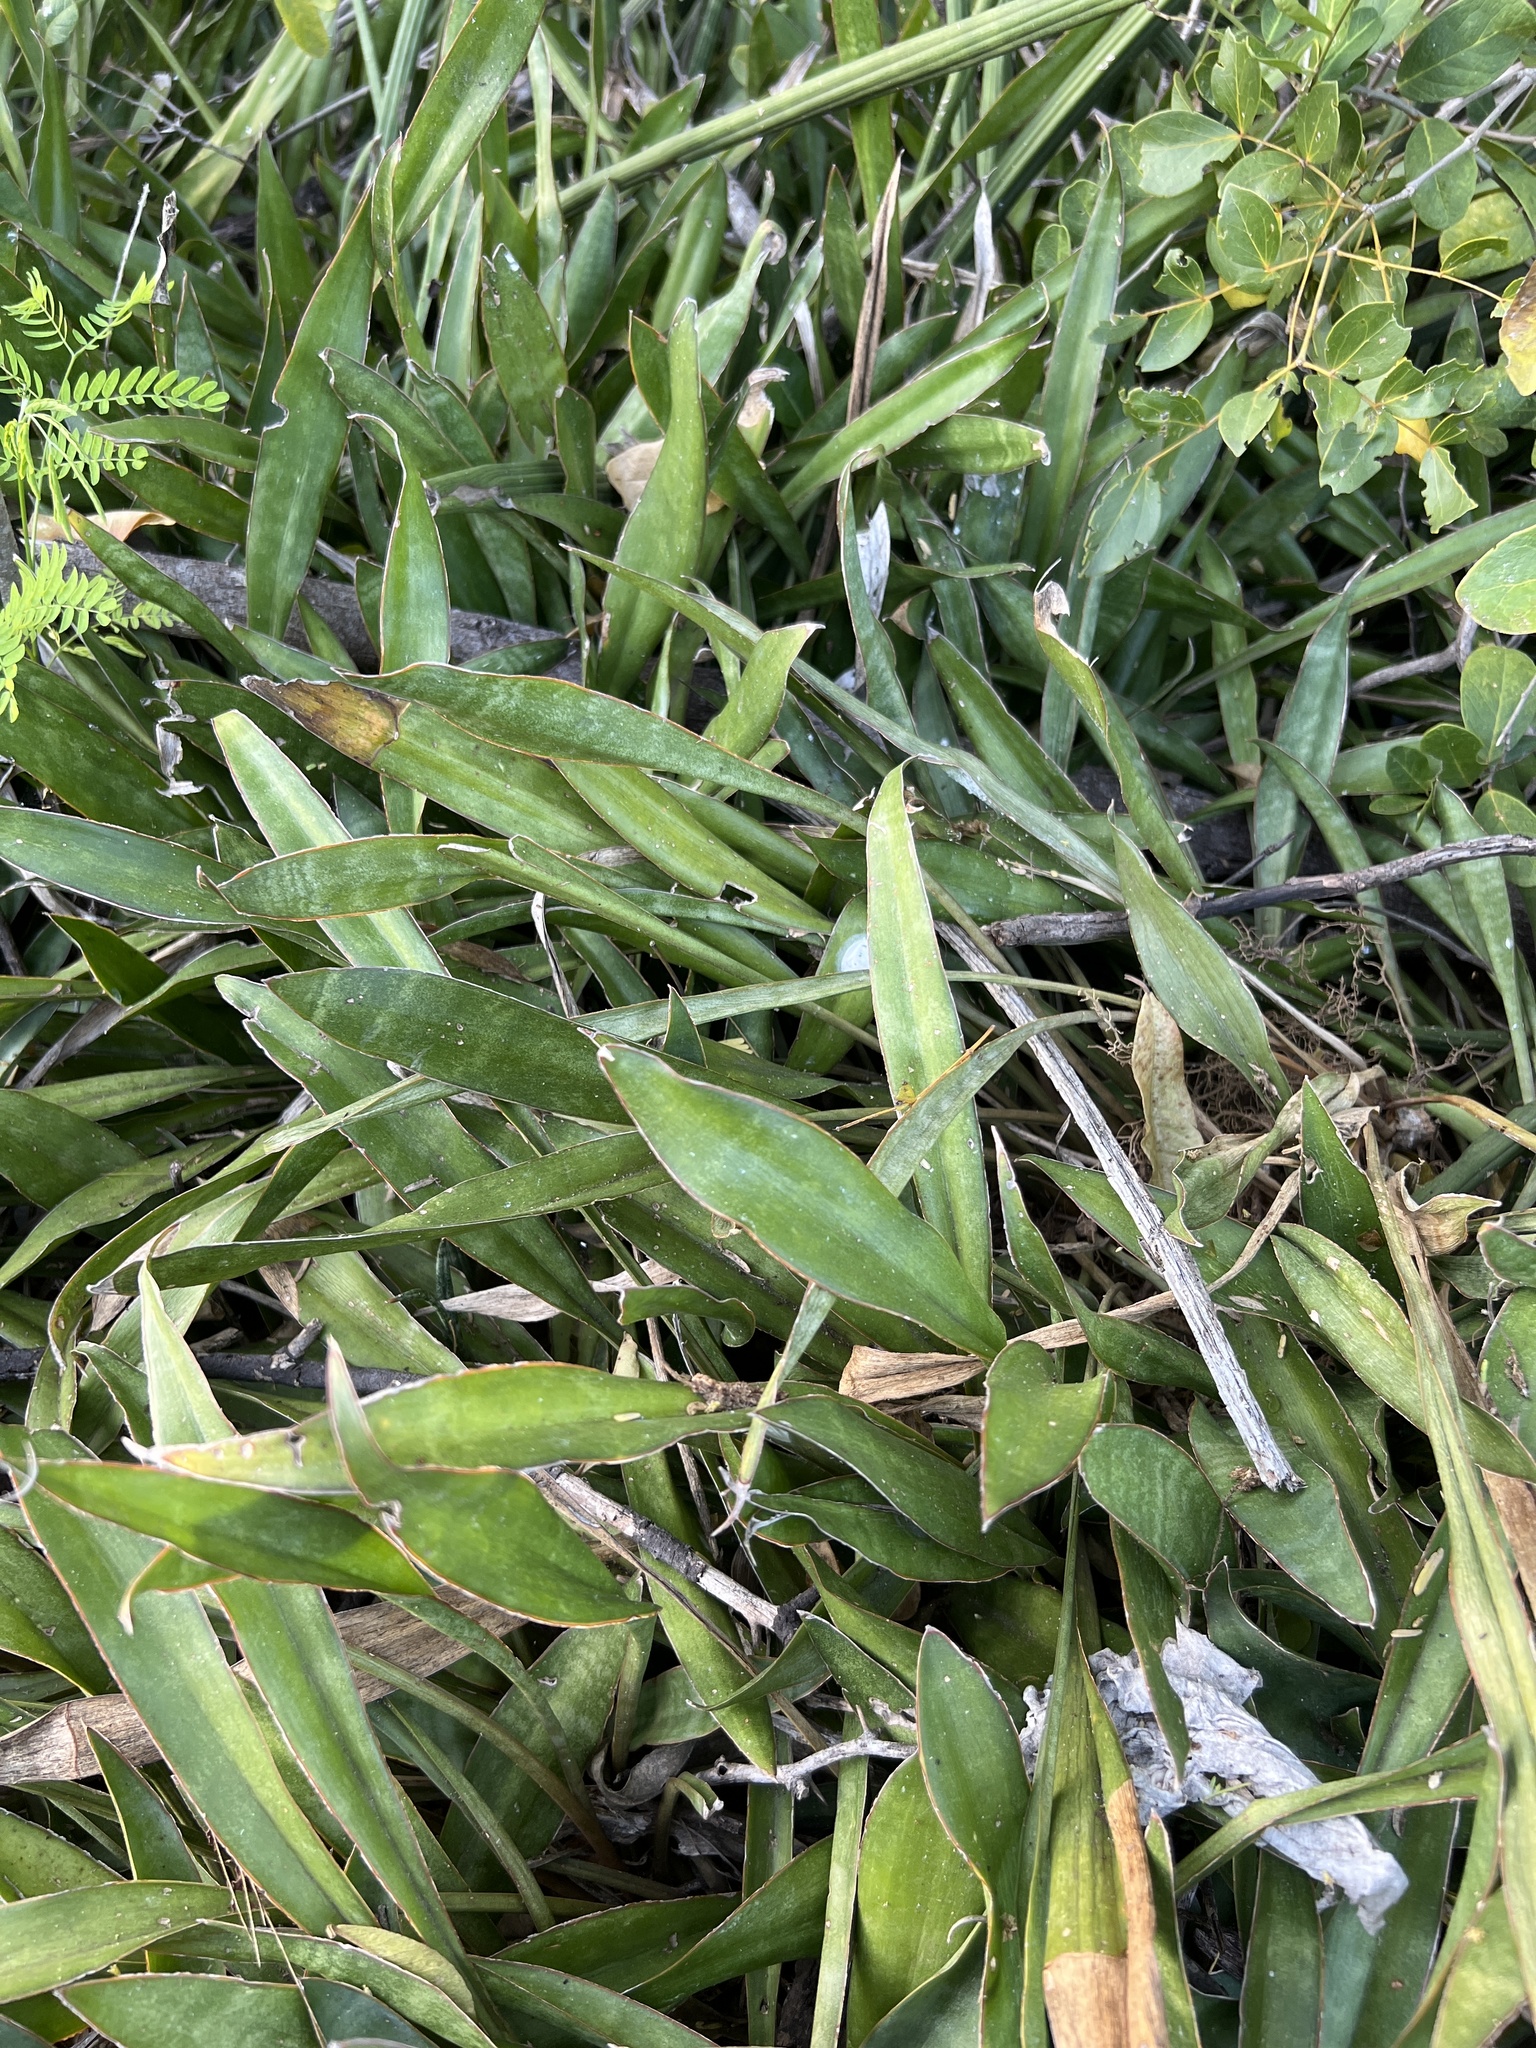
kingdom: Plantae
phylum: Tracheophyta
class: Liliopsida
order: Asparagales
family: Asparagaceae
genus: Dracaena
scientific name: Dracaena hyacinthoides
